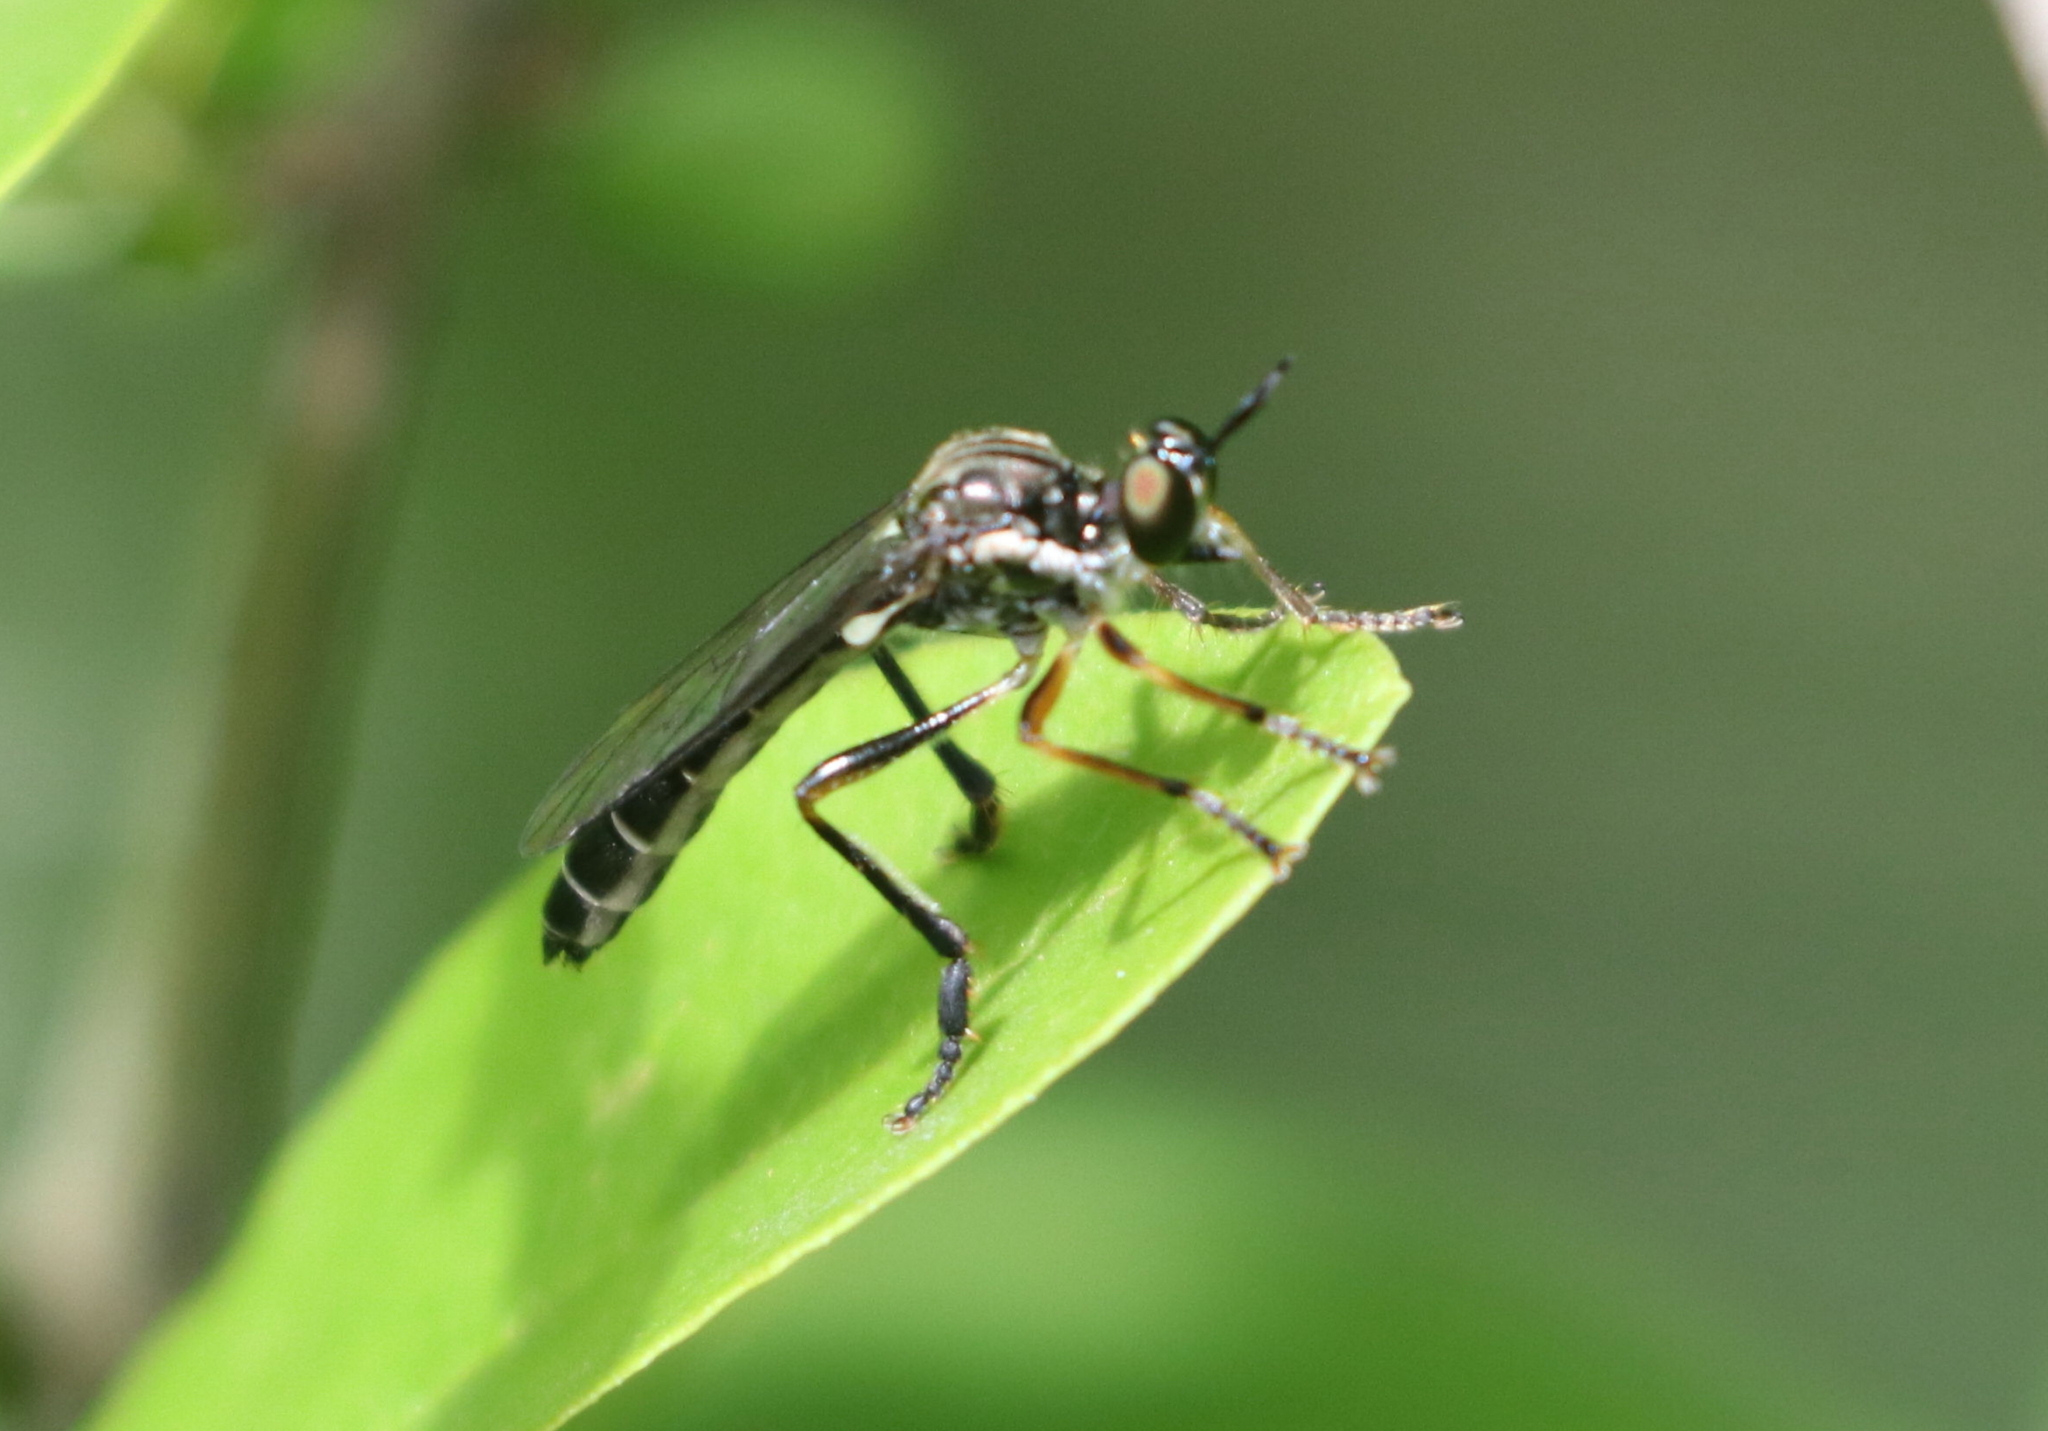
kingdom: Animalia
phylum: Arthropoda
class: Insecta
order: Diptera
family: Asilidae
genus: Dioctria
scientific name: Dioctria hyalipennis
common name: Stripe-legged robberfly
